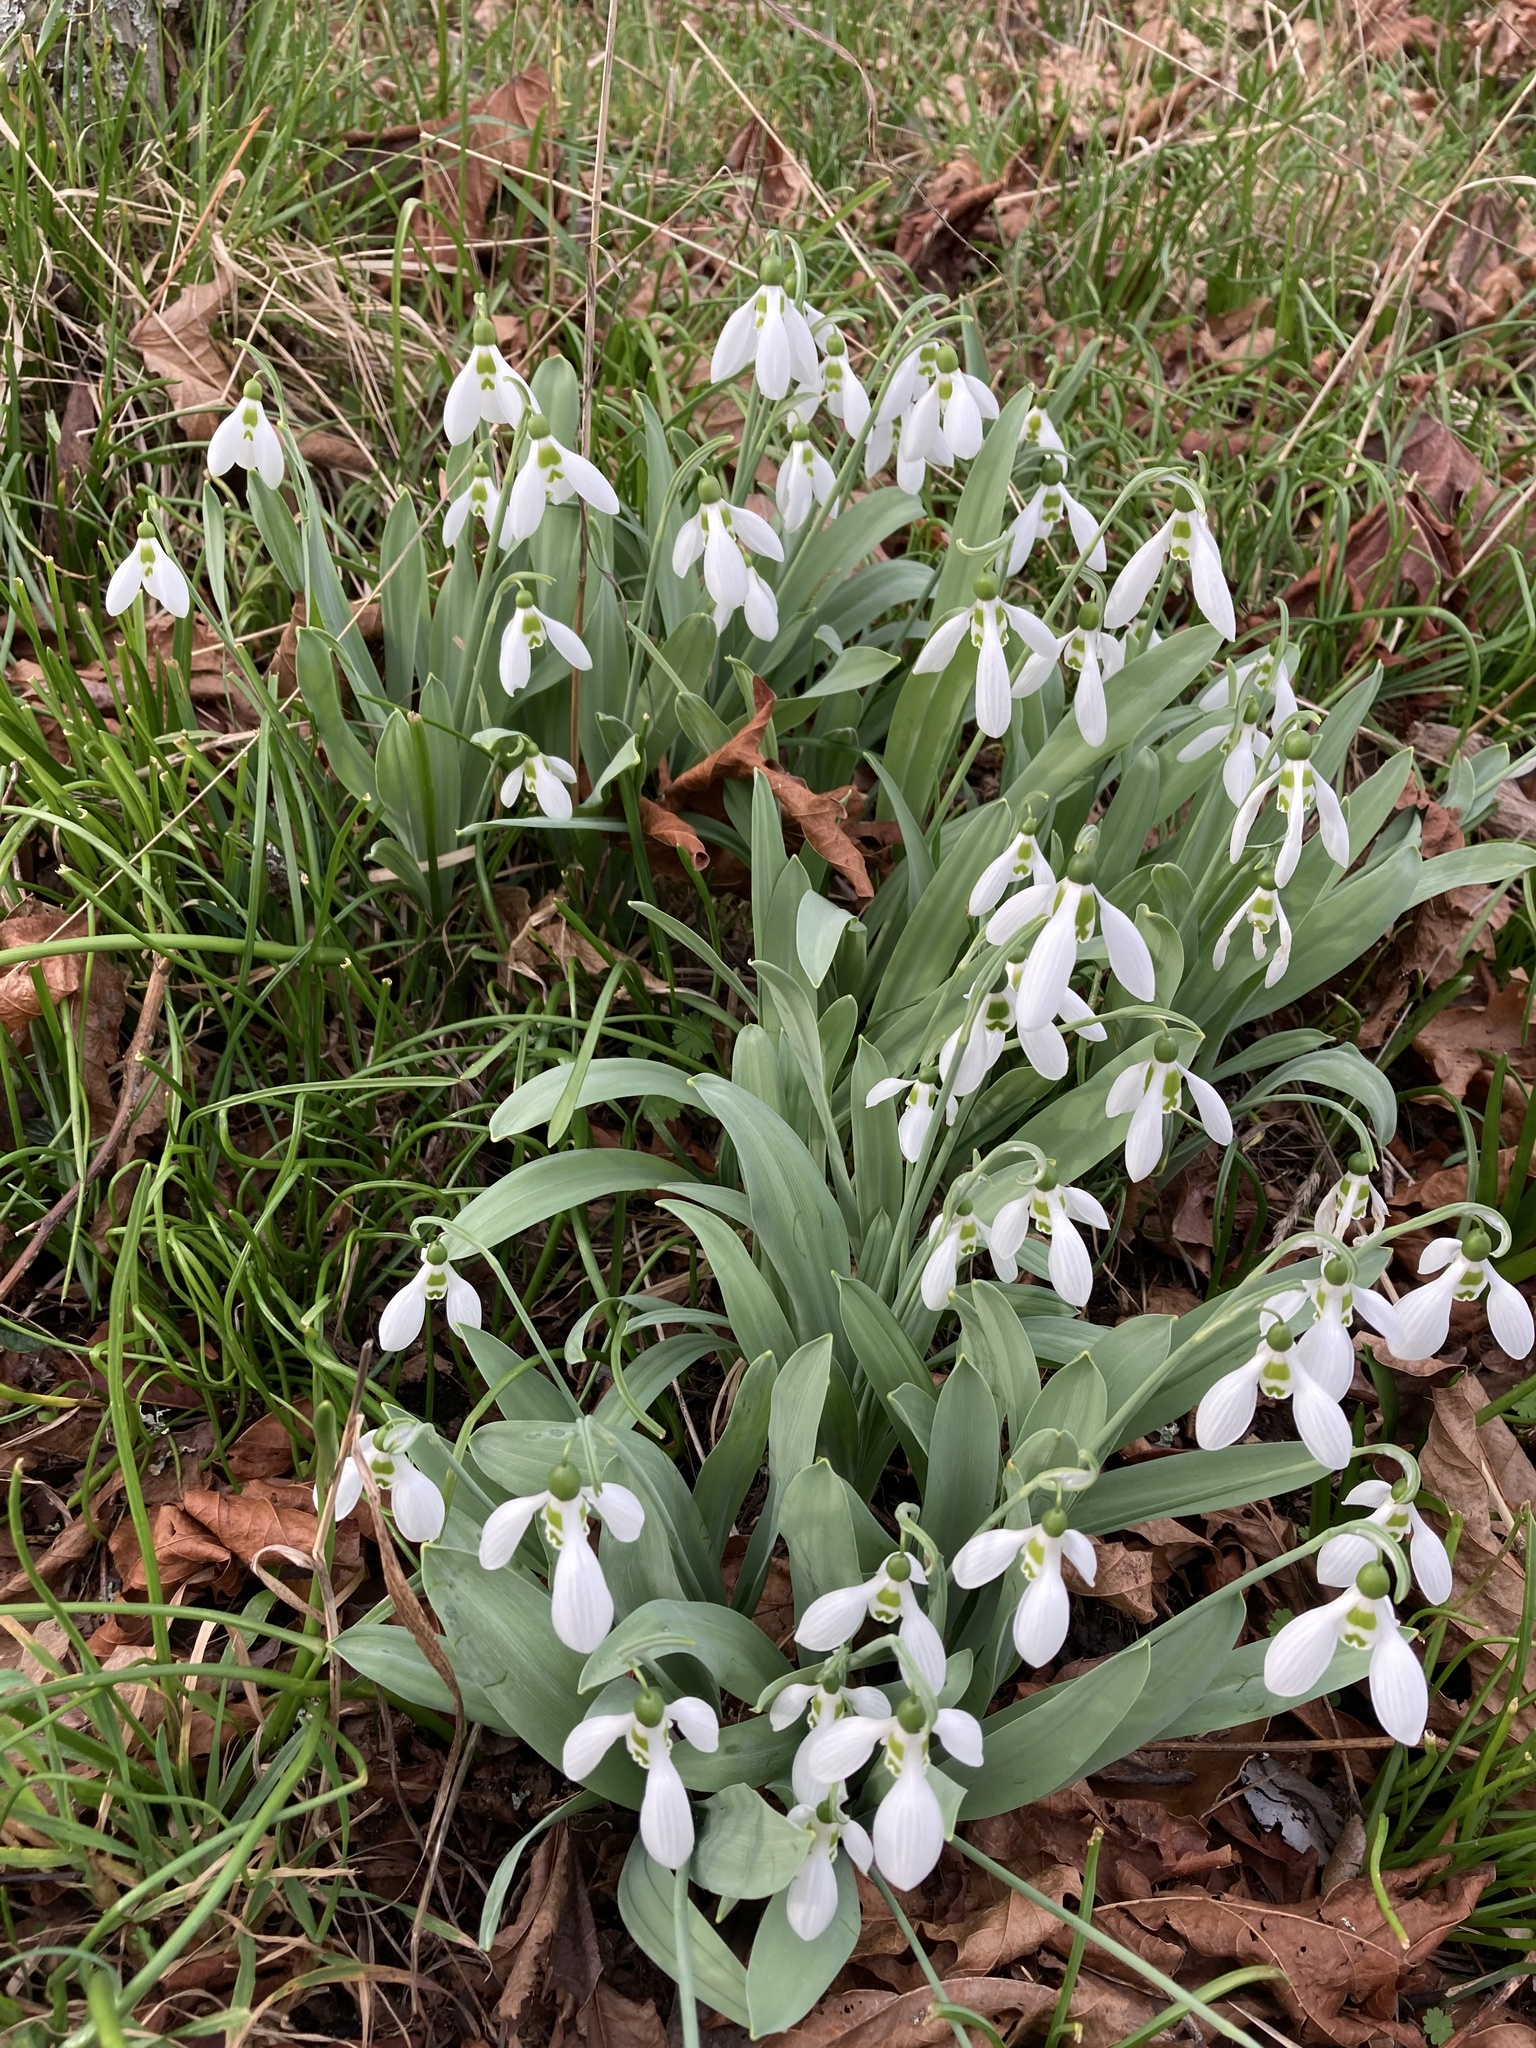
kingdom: Plantae
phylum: Tracheophyta
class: Liliopsida
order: Asparagales
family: Amaryllidaceae
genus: Galanthus
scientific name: Galanthus elwesii
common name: Greater snowdrop
